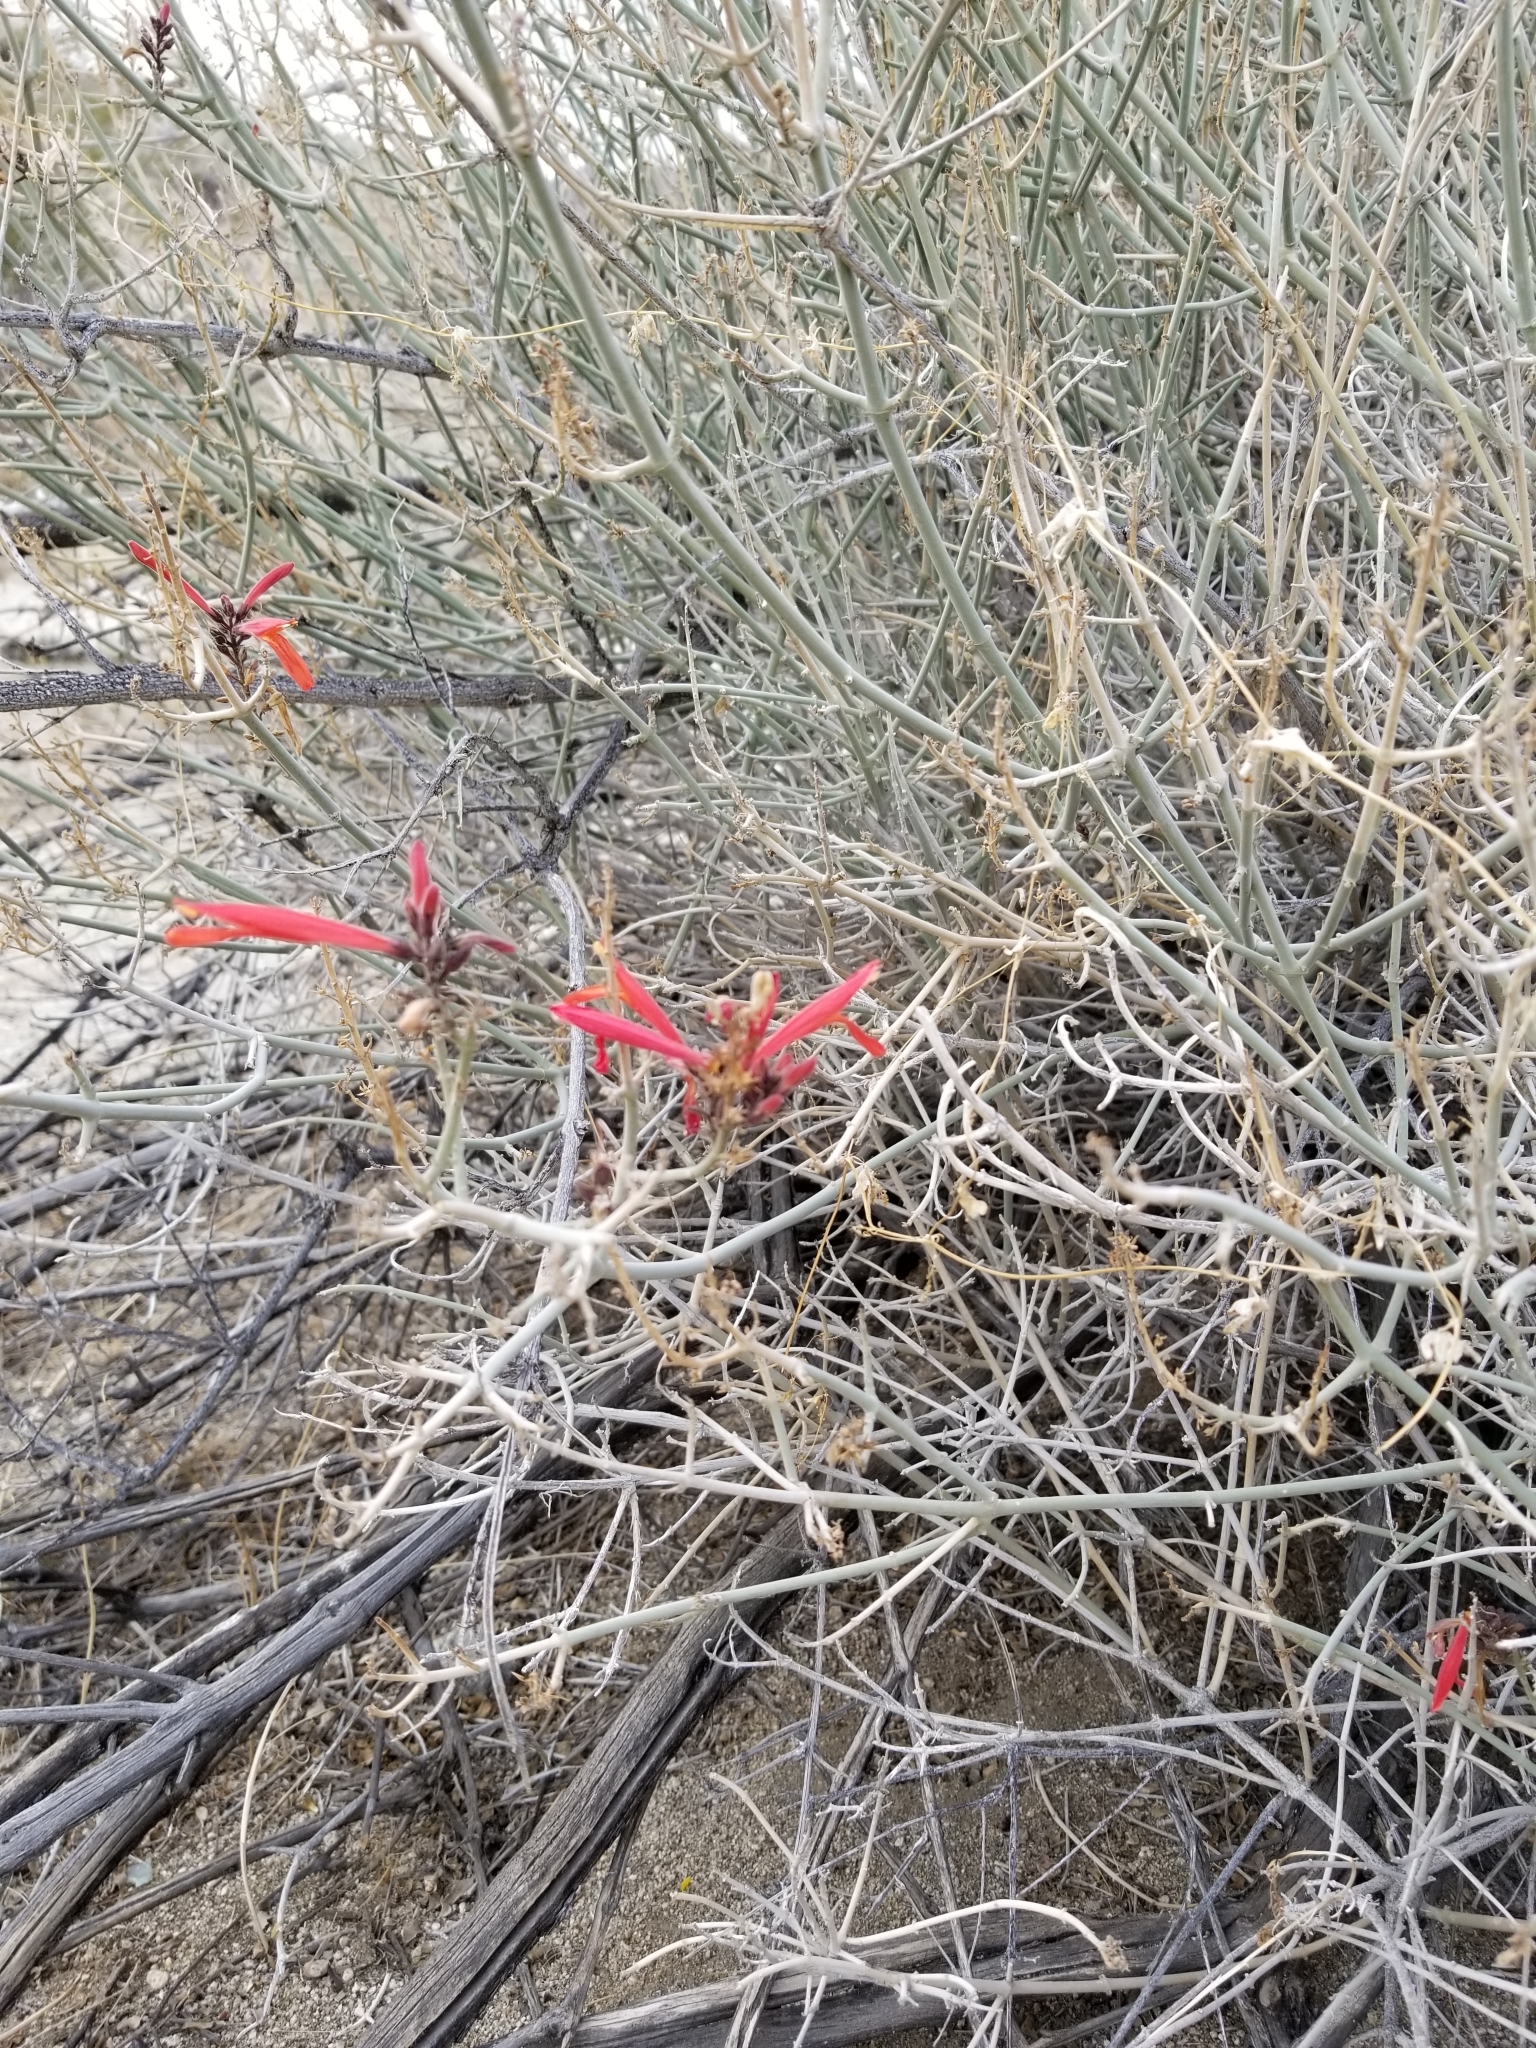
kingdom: Plantae
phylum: Tracheophyta
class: Magnoliopsida
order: Lamiales
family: Acanthaceae
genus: Justicia
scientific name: Justicia californica
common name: Chuparosa-honeysuckle
